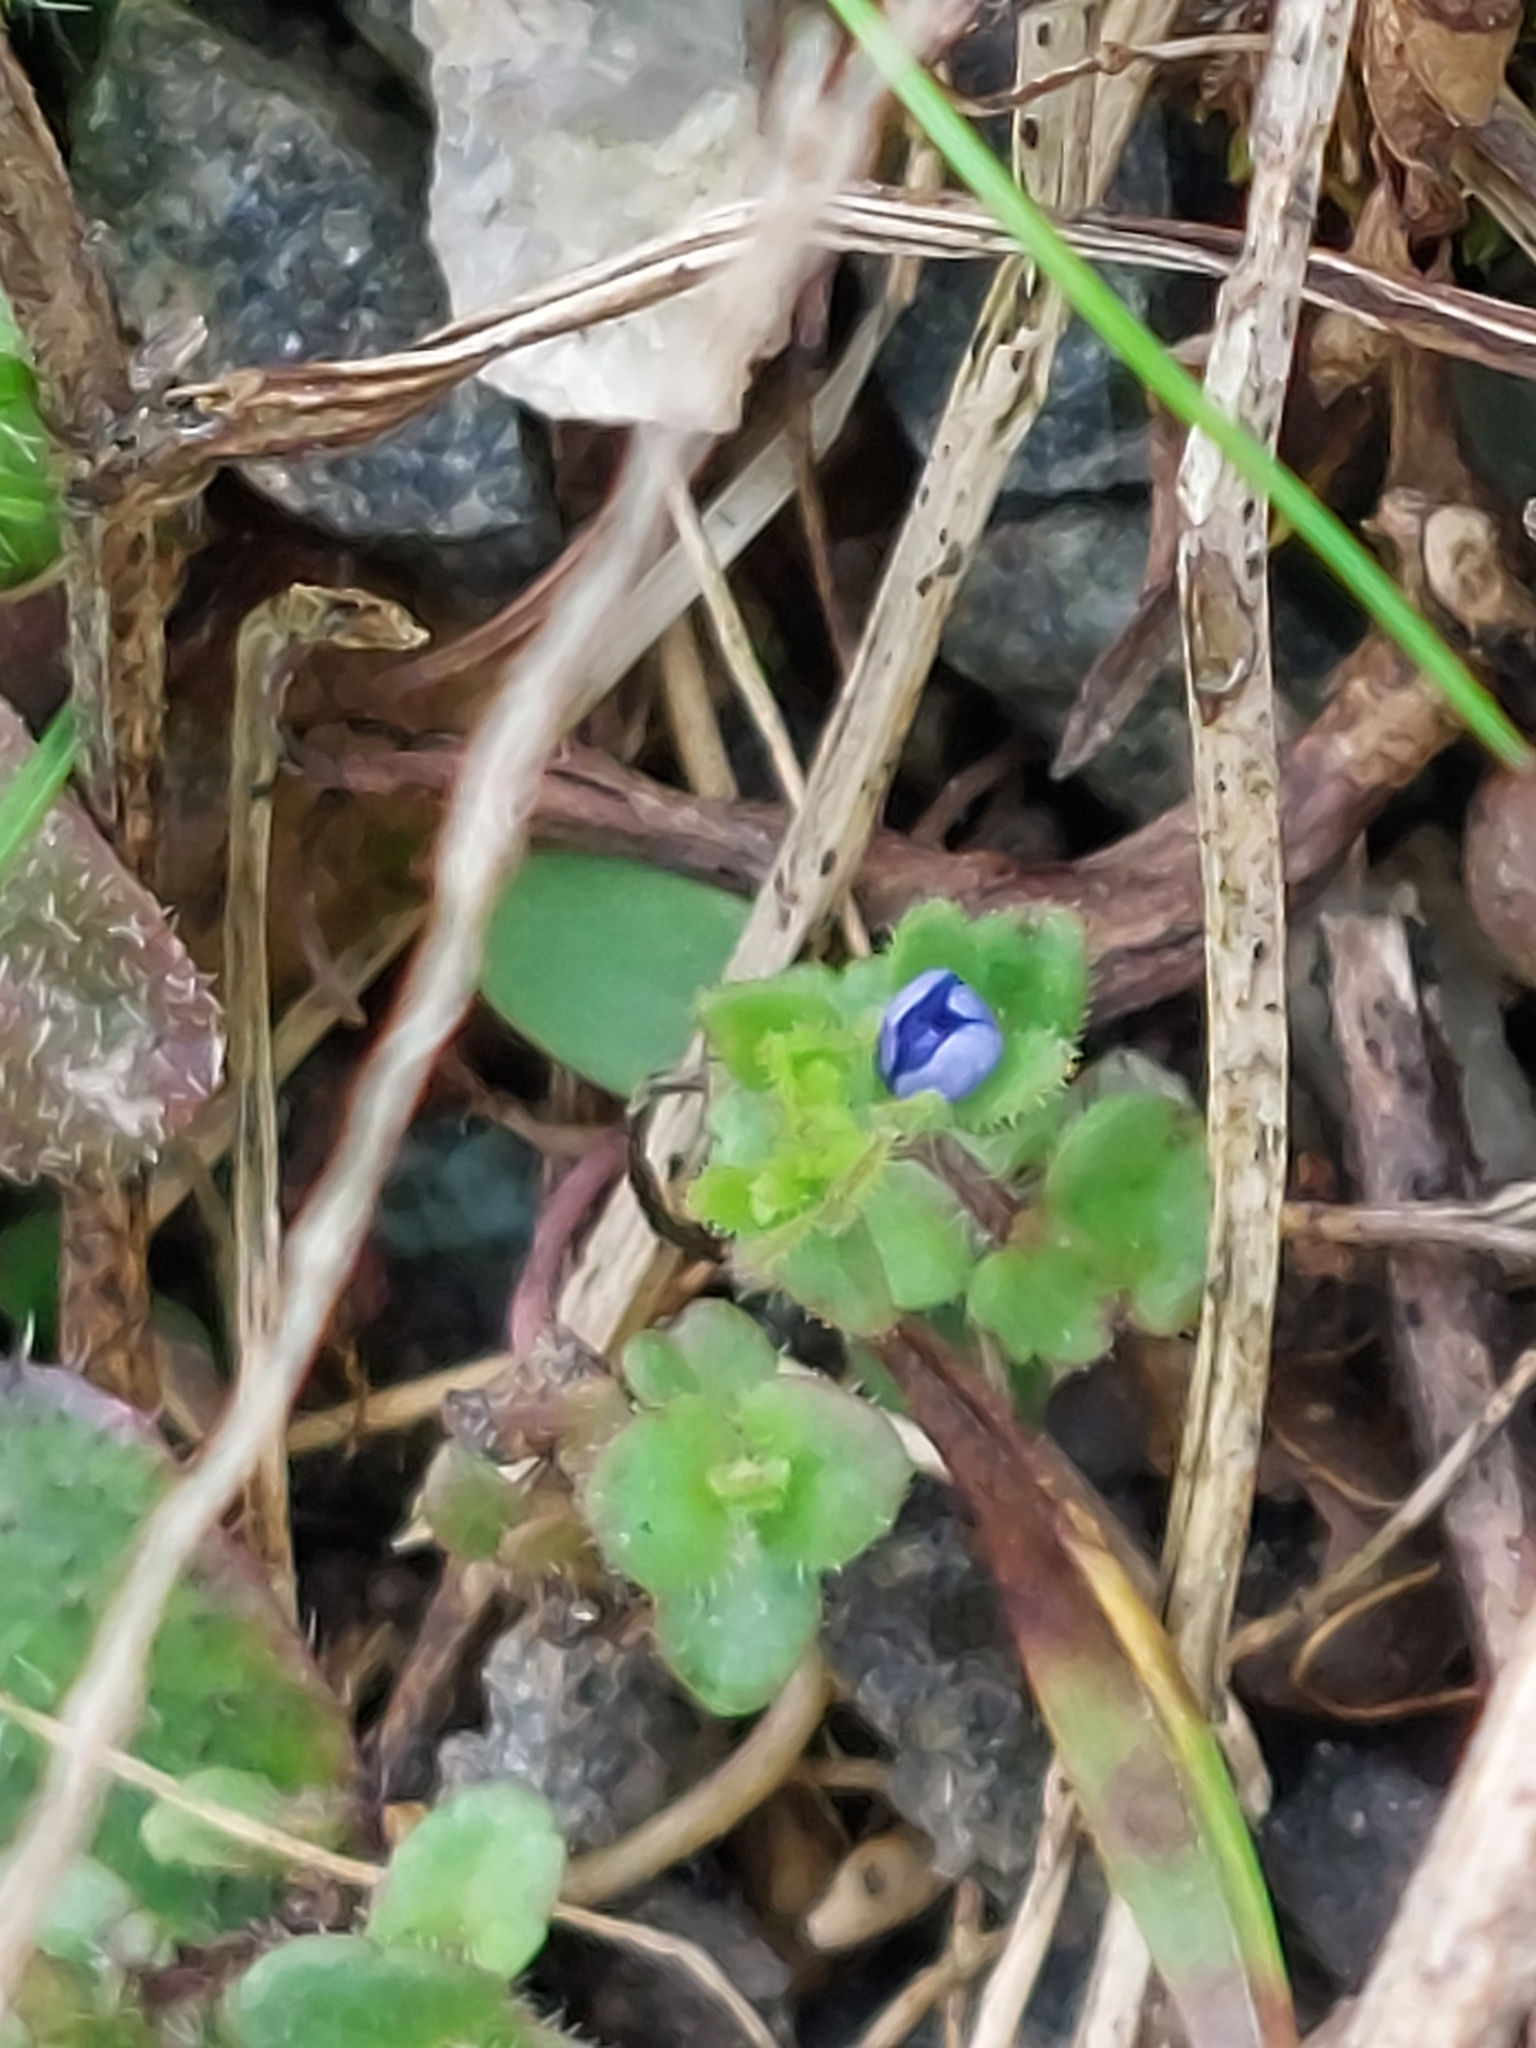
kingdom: Plantae
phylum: Tracheophyta
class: Magnoliopsida
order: Lamiales
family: Plantaginaceae
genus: Veronica
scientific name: Veronica arvensis
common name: Corn speedwell
